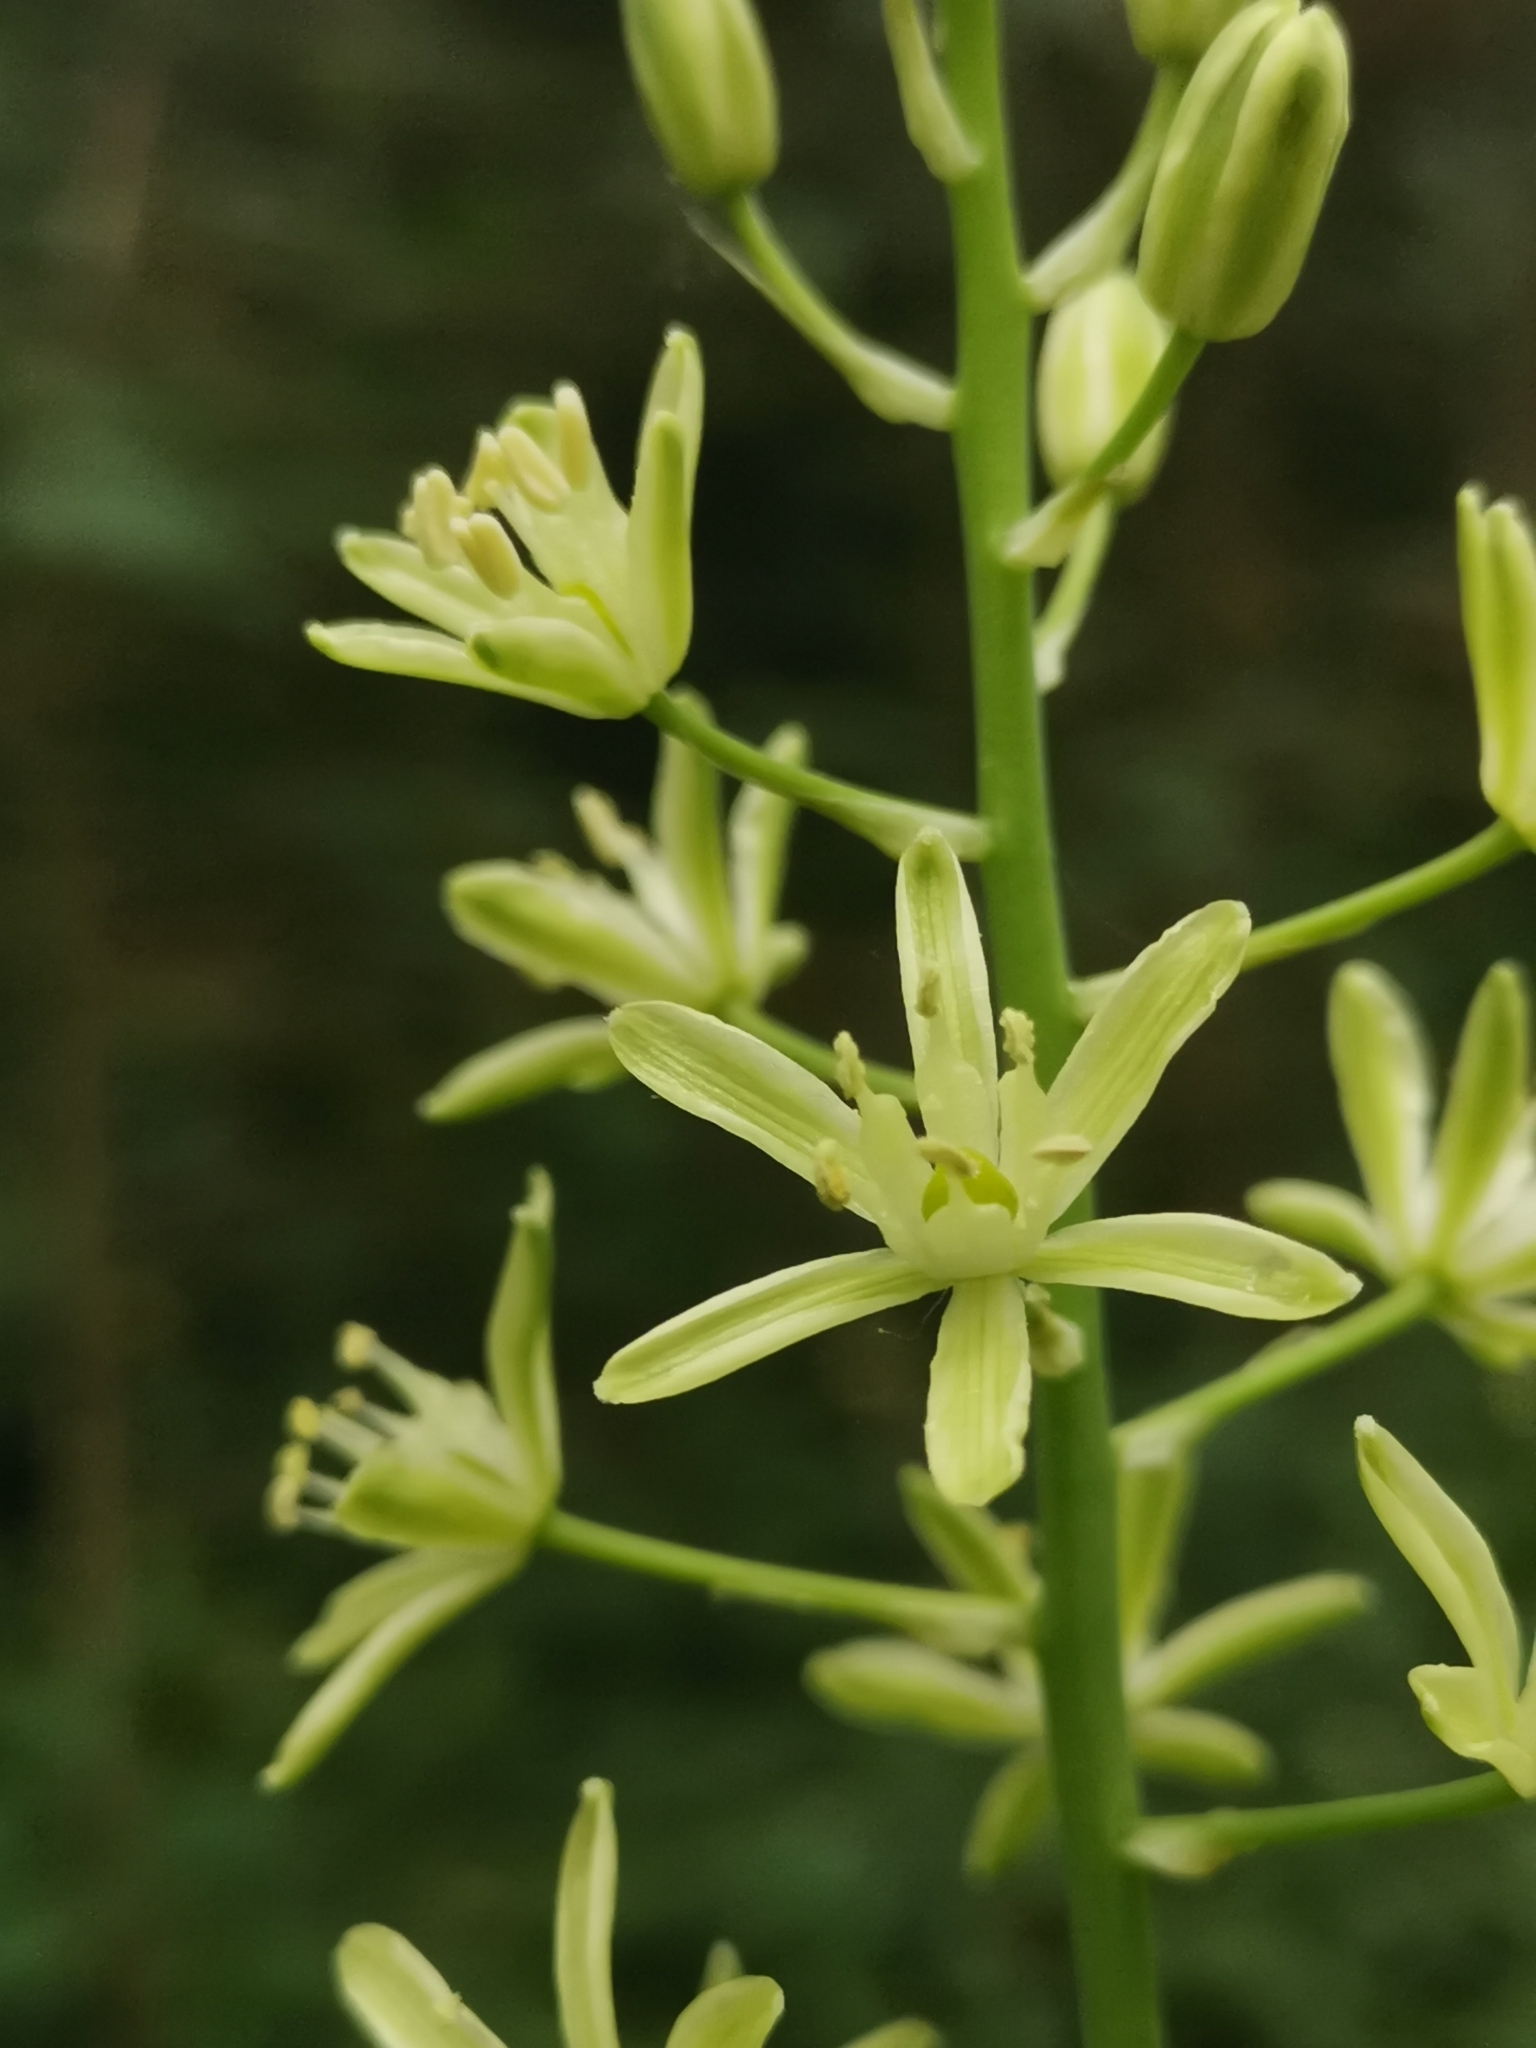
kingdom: Plantae
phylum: Tracheophyta
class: Liliopsida
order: Asparagales
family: Asparagaceae
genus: Ornithogalum
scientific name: Ornithogalum pyrenaicum
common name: Spiked star-of-bethlehem
